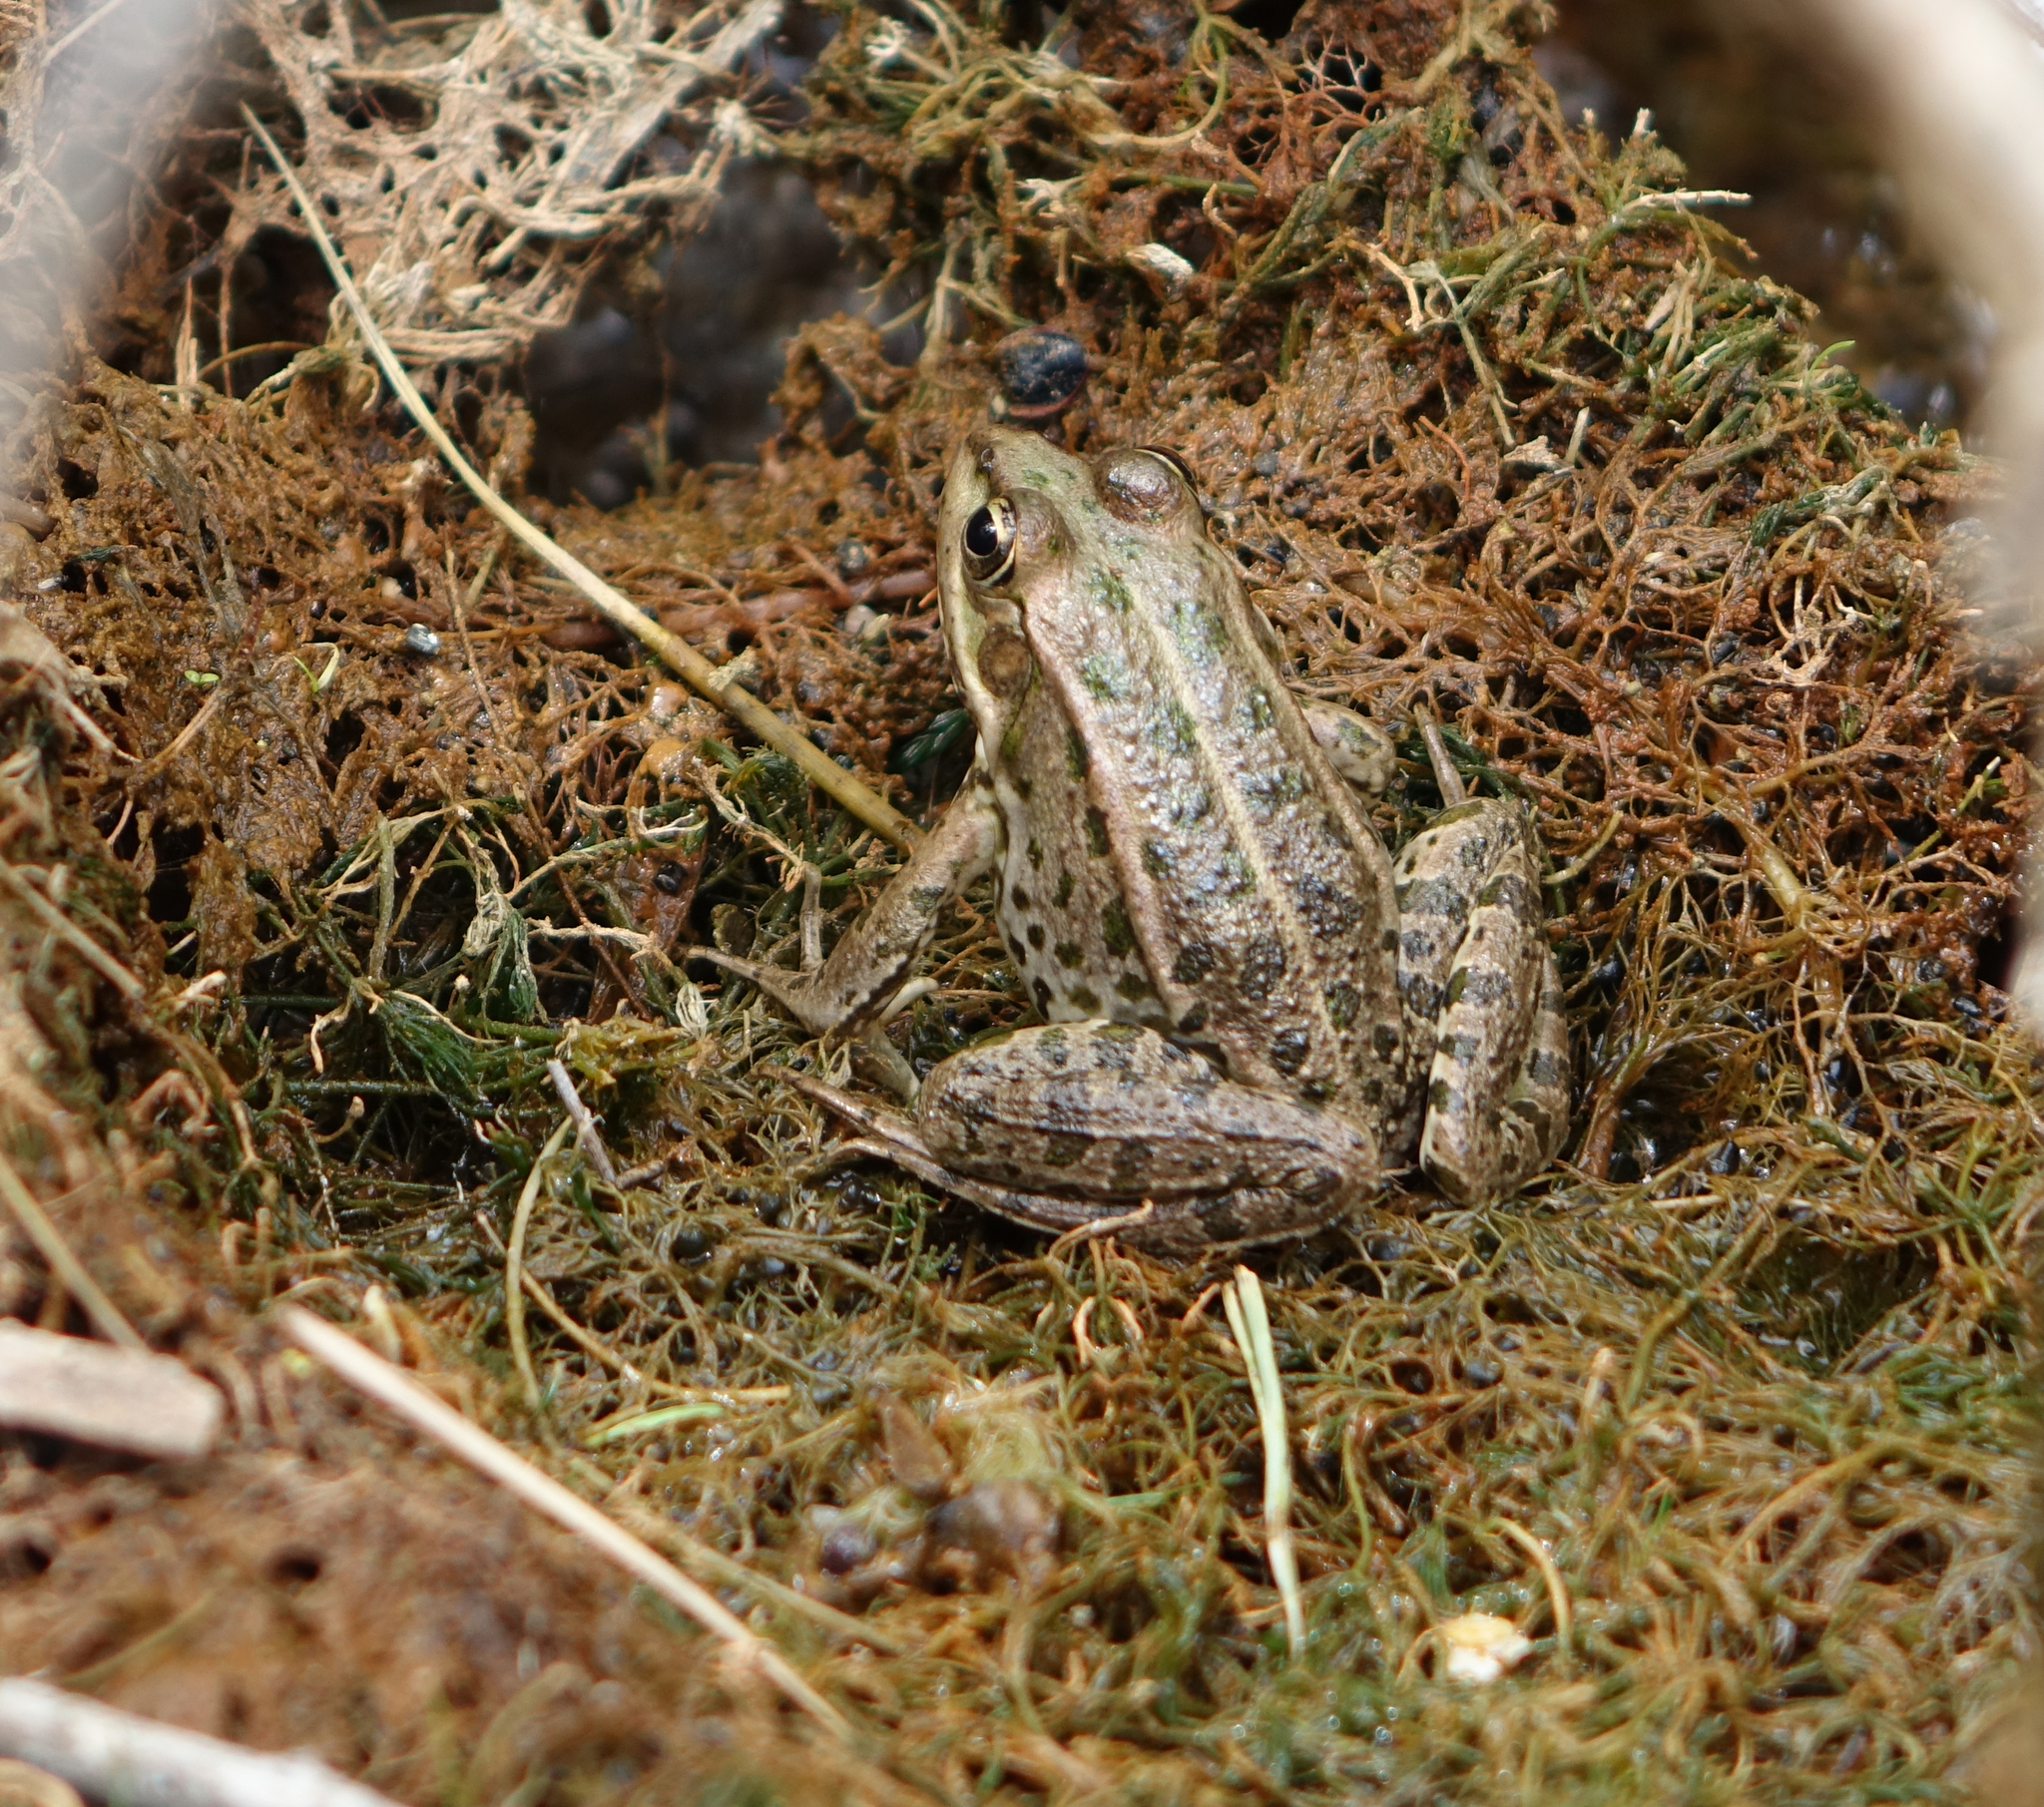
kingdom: Animalia
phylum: Chordata
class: Amphibia
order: Anura
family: Ranidae
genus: Pelophylax
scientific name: Pelophylax ridibundus
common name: Marsh frog
